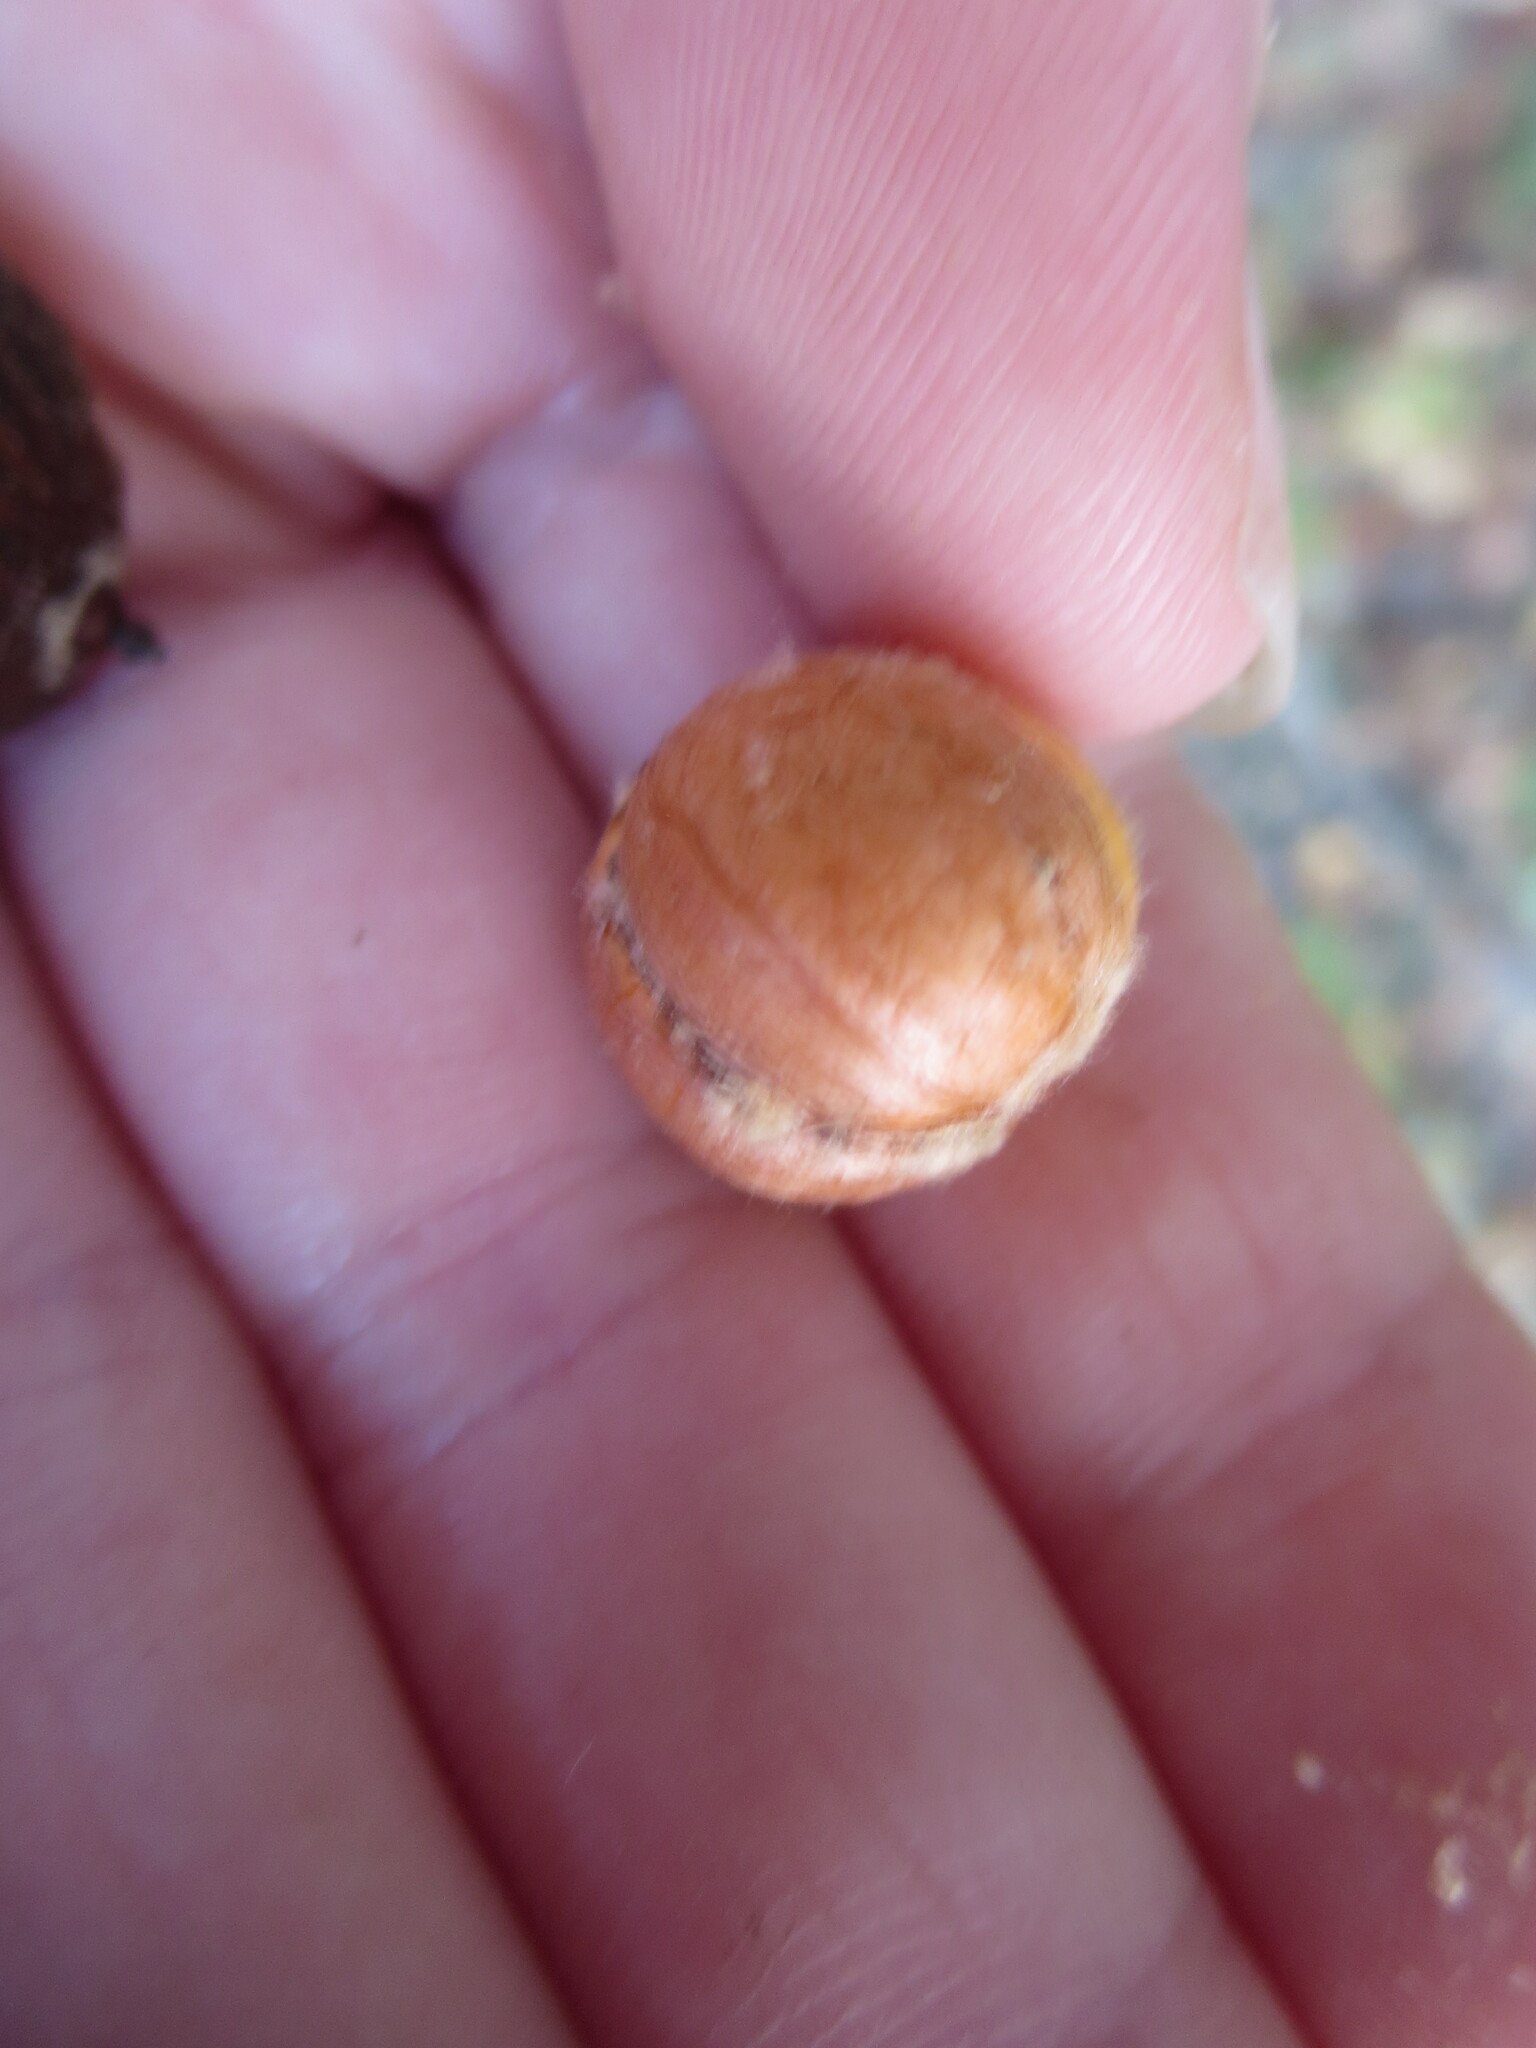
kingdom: Plantae
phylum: Tracheophyta
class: Magnoliopsida
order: Fagales
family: Fagaceae
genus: Quercus
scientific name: Quercus nigra
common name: Water oak
